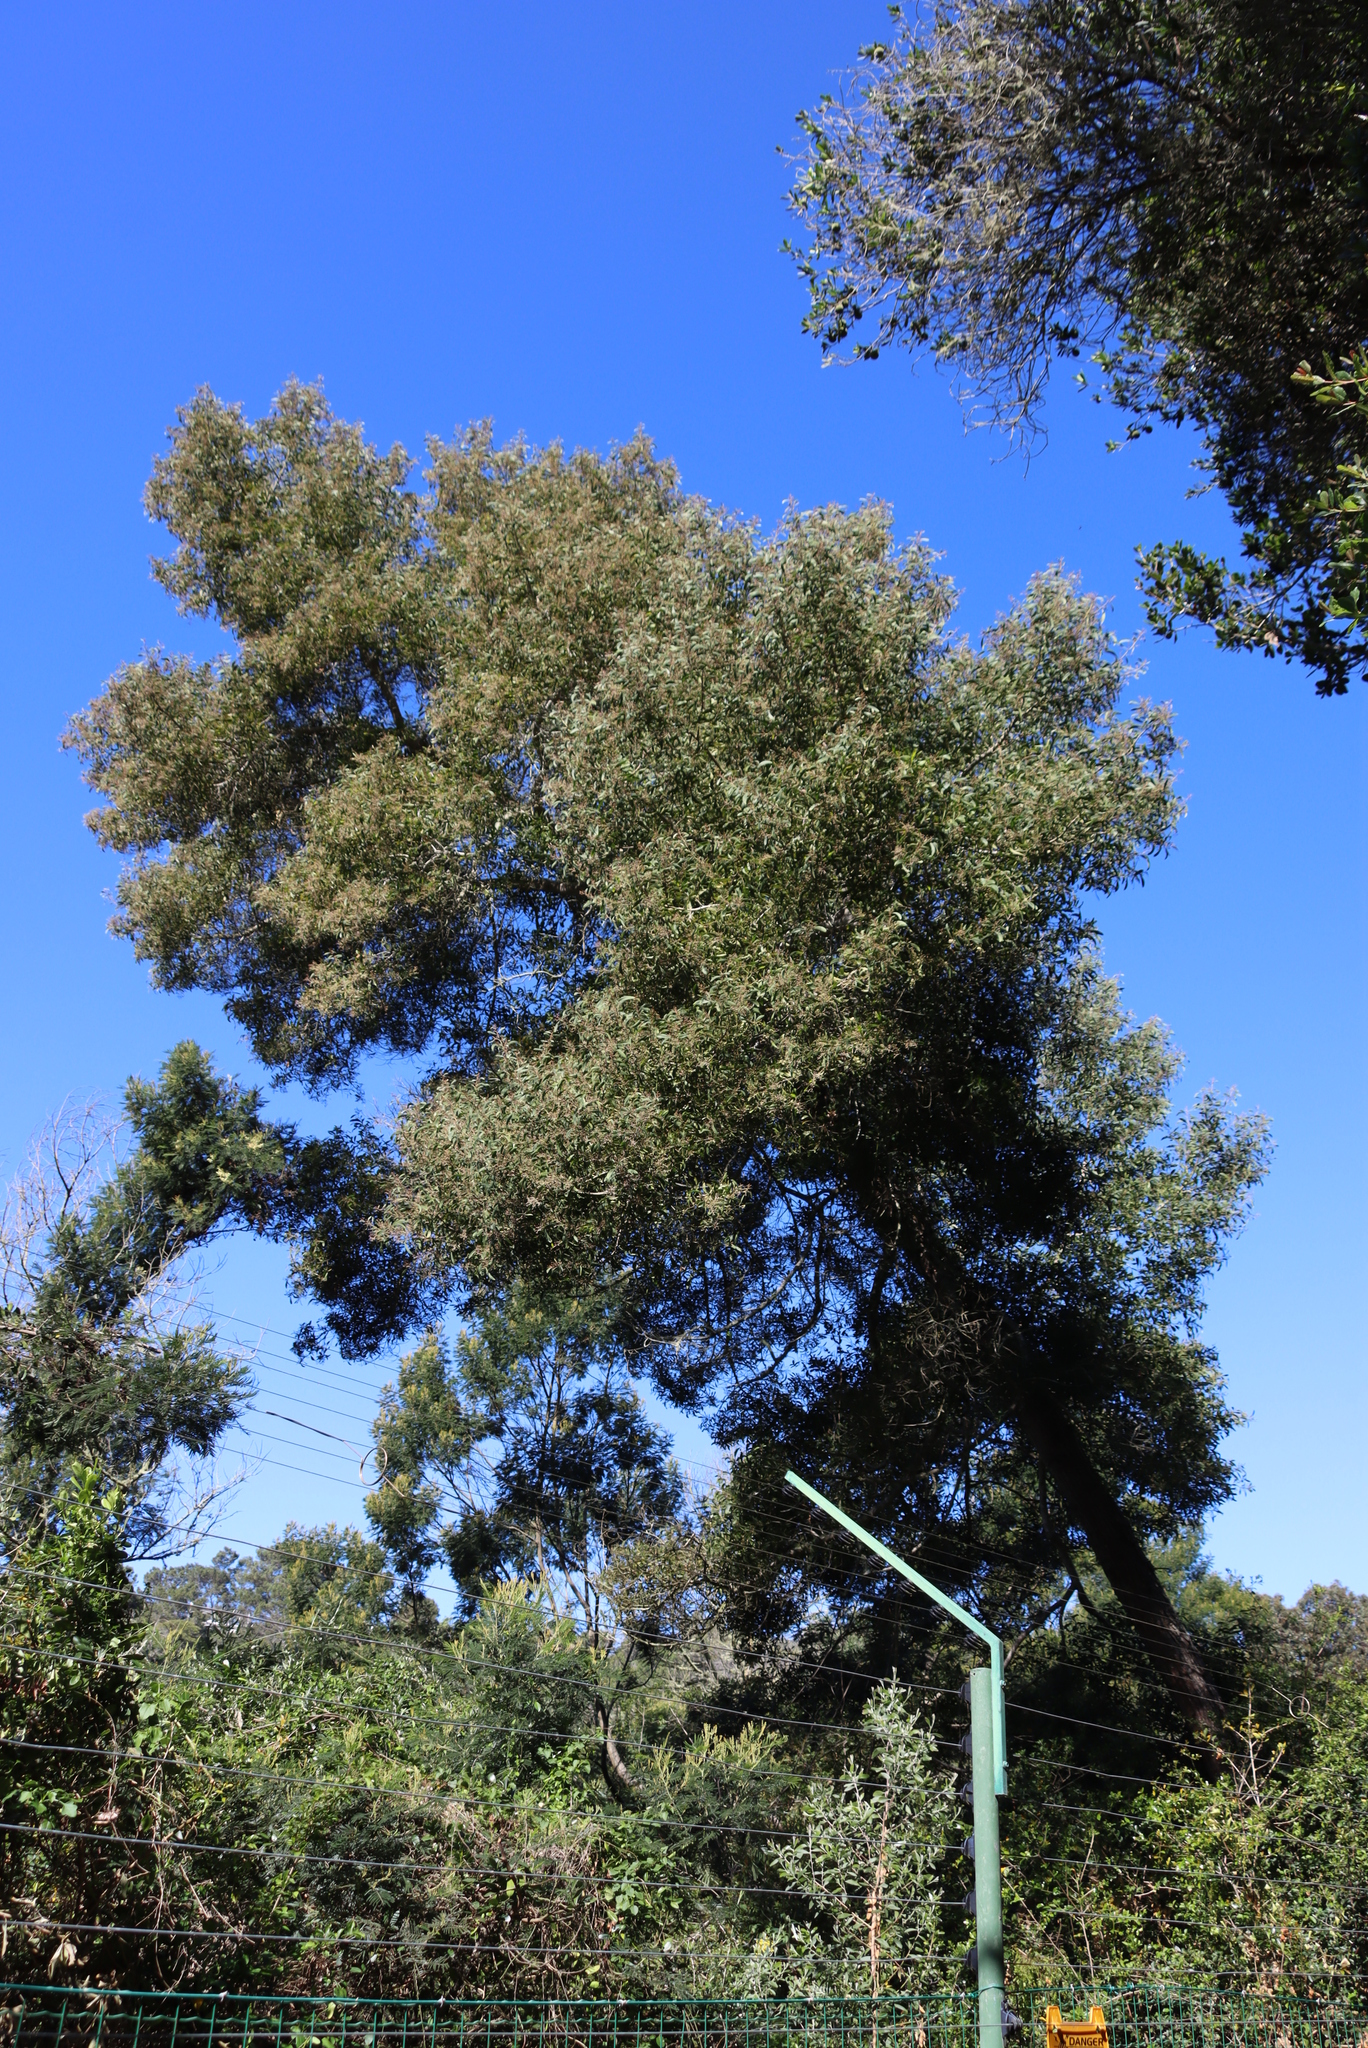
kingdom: Plantae
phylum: Tracheophyta
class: Magnoliopsida
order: Fabales
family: Fabaceae
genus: Acacia
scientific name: Acacia melanoxylon
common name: Blackwood
